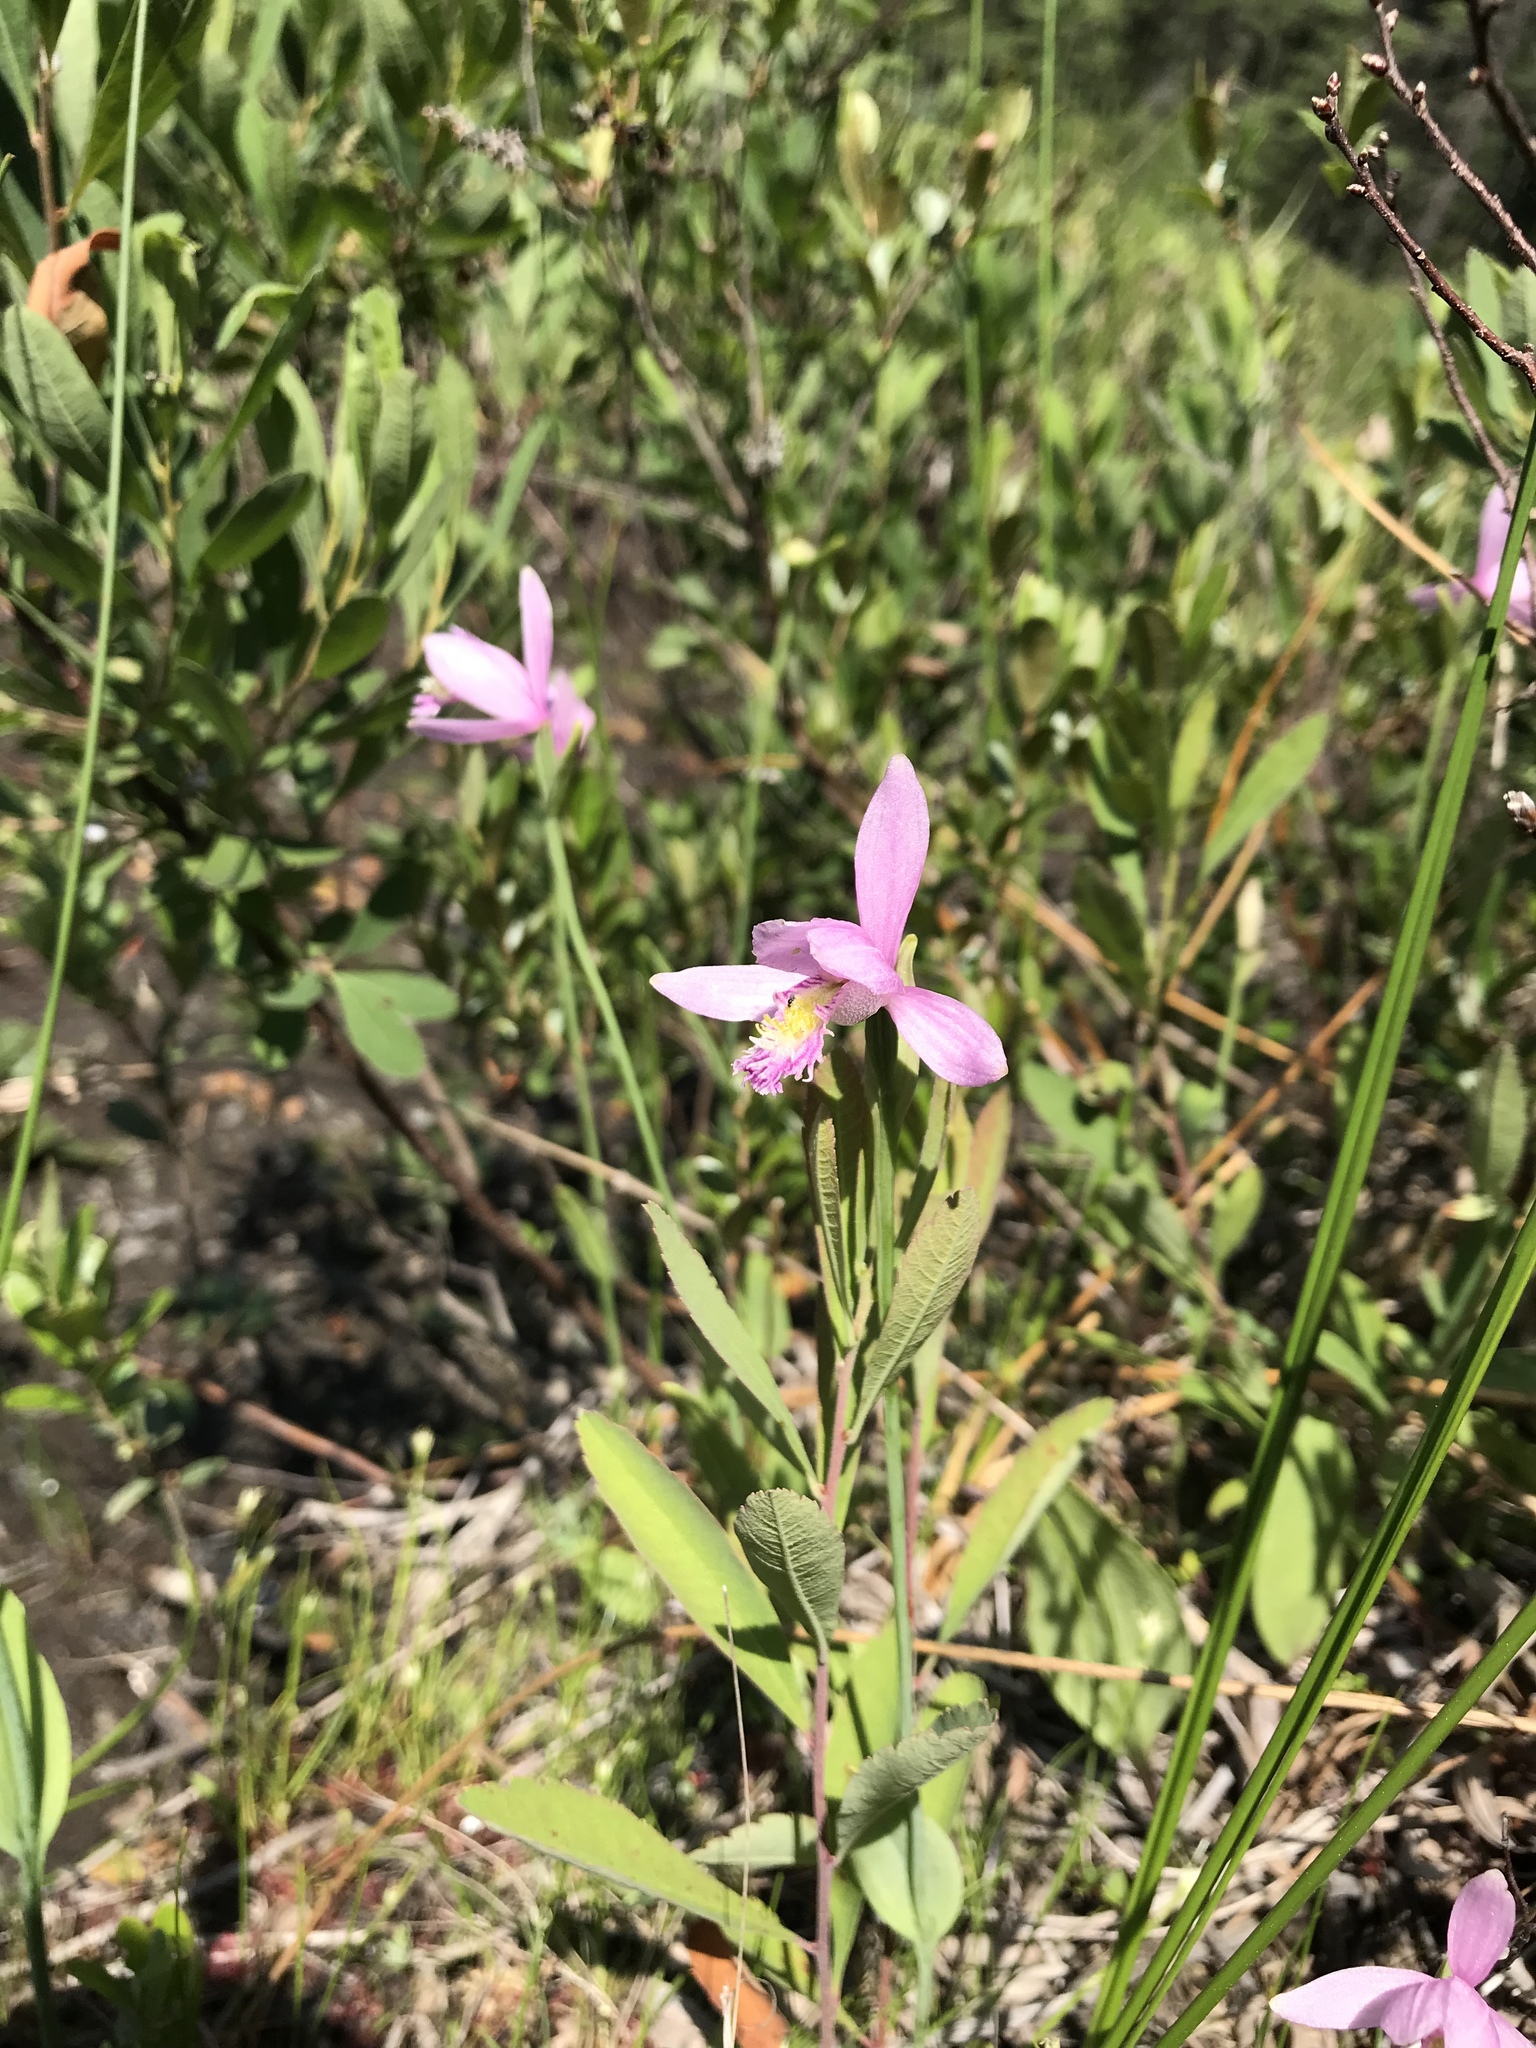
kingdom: Plantae
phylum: Tracheophyta
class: Liliopsida
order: Asparagales
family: Orchidaceae
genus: Pogonia
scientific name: Pogonia ophioglossoides
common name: Rose pogonia
